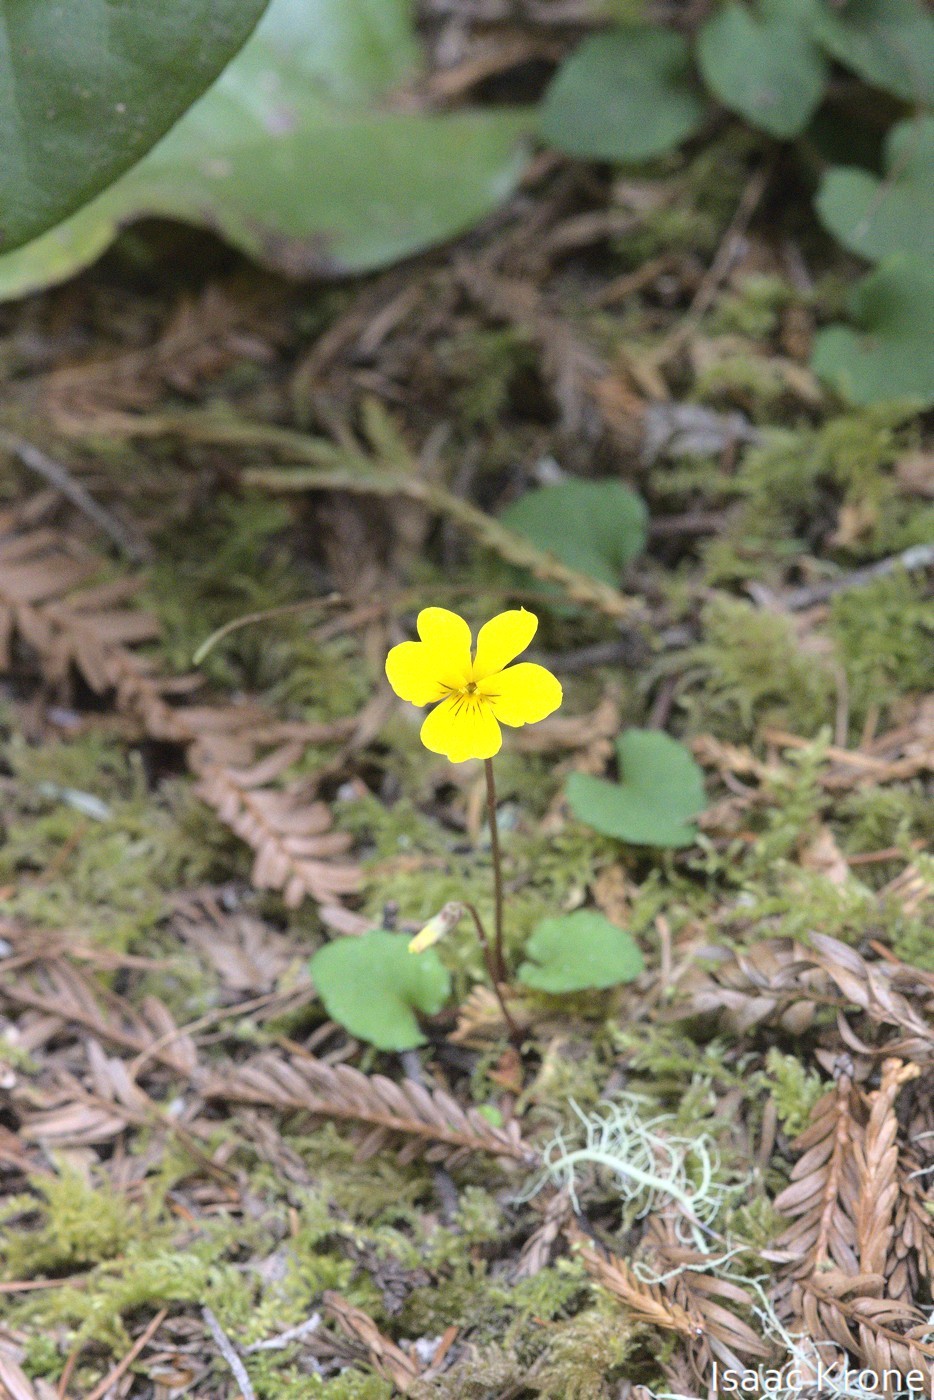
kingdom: Plantae
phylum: Tracheophyta
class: Magnoliopsida
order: Malpighiales
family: Violaceae
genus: Viola
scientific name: Viola sempervirens
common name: Evergreen violet
